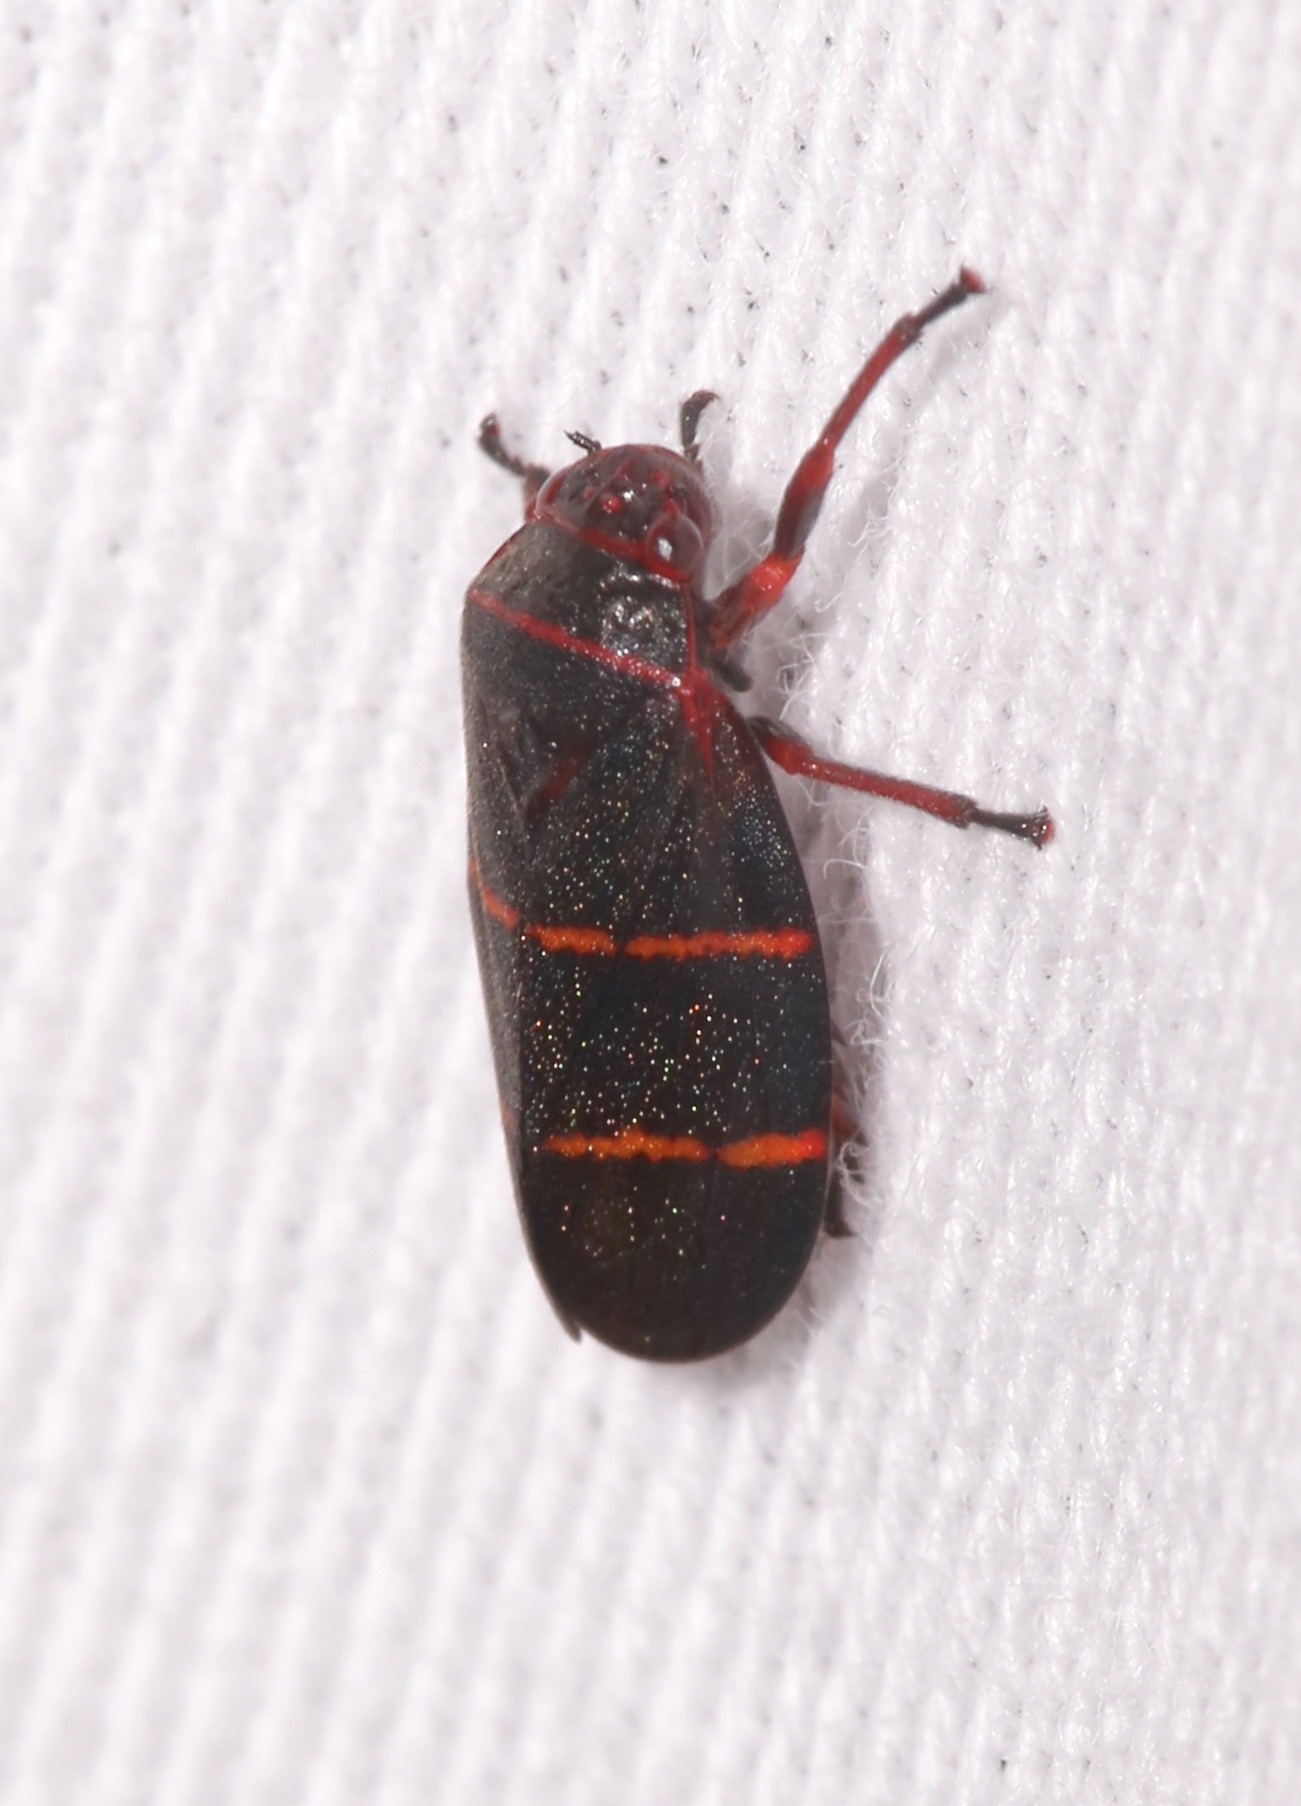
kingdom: Animalia
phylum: Arthropoda
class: Insecta
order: Hemiptera
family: Cercopidae
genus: Prosapia
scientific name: Prosapia bicincta
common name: Twolined spittlebug
